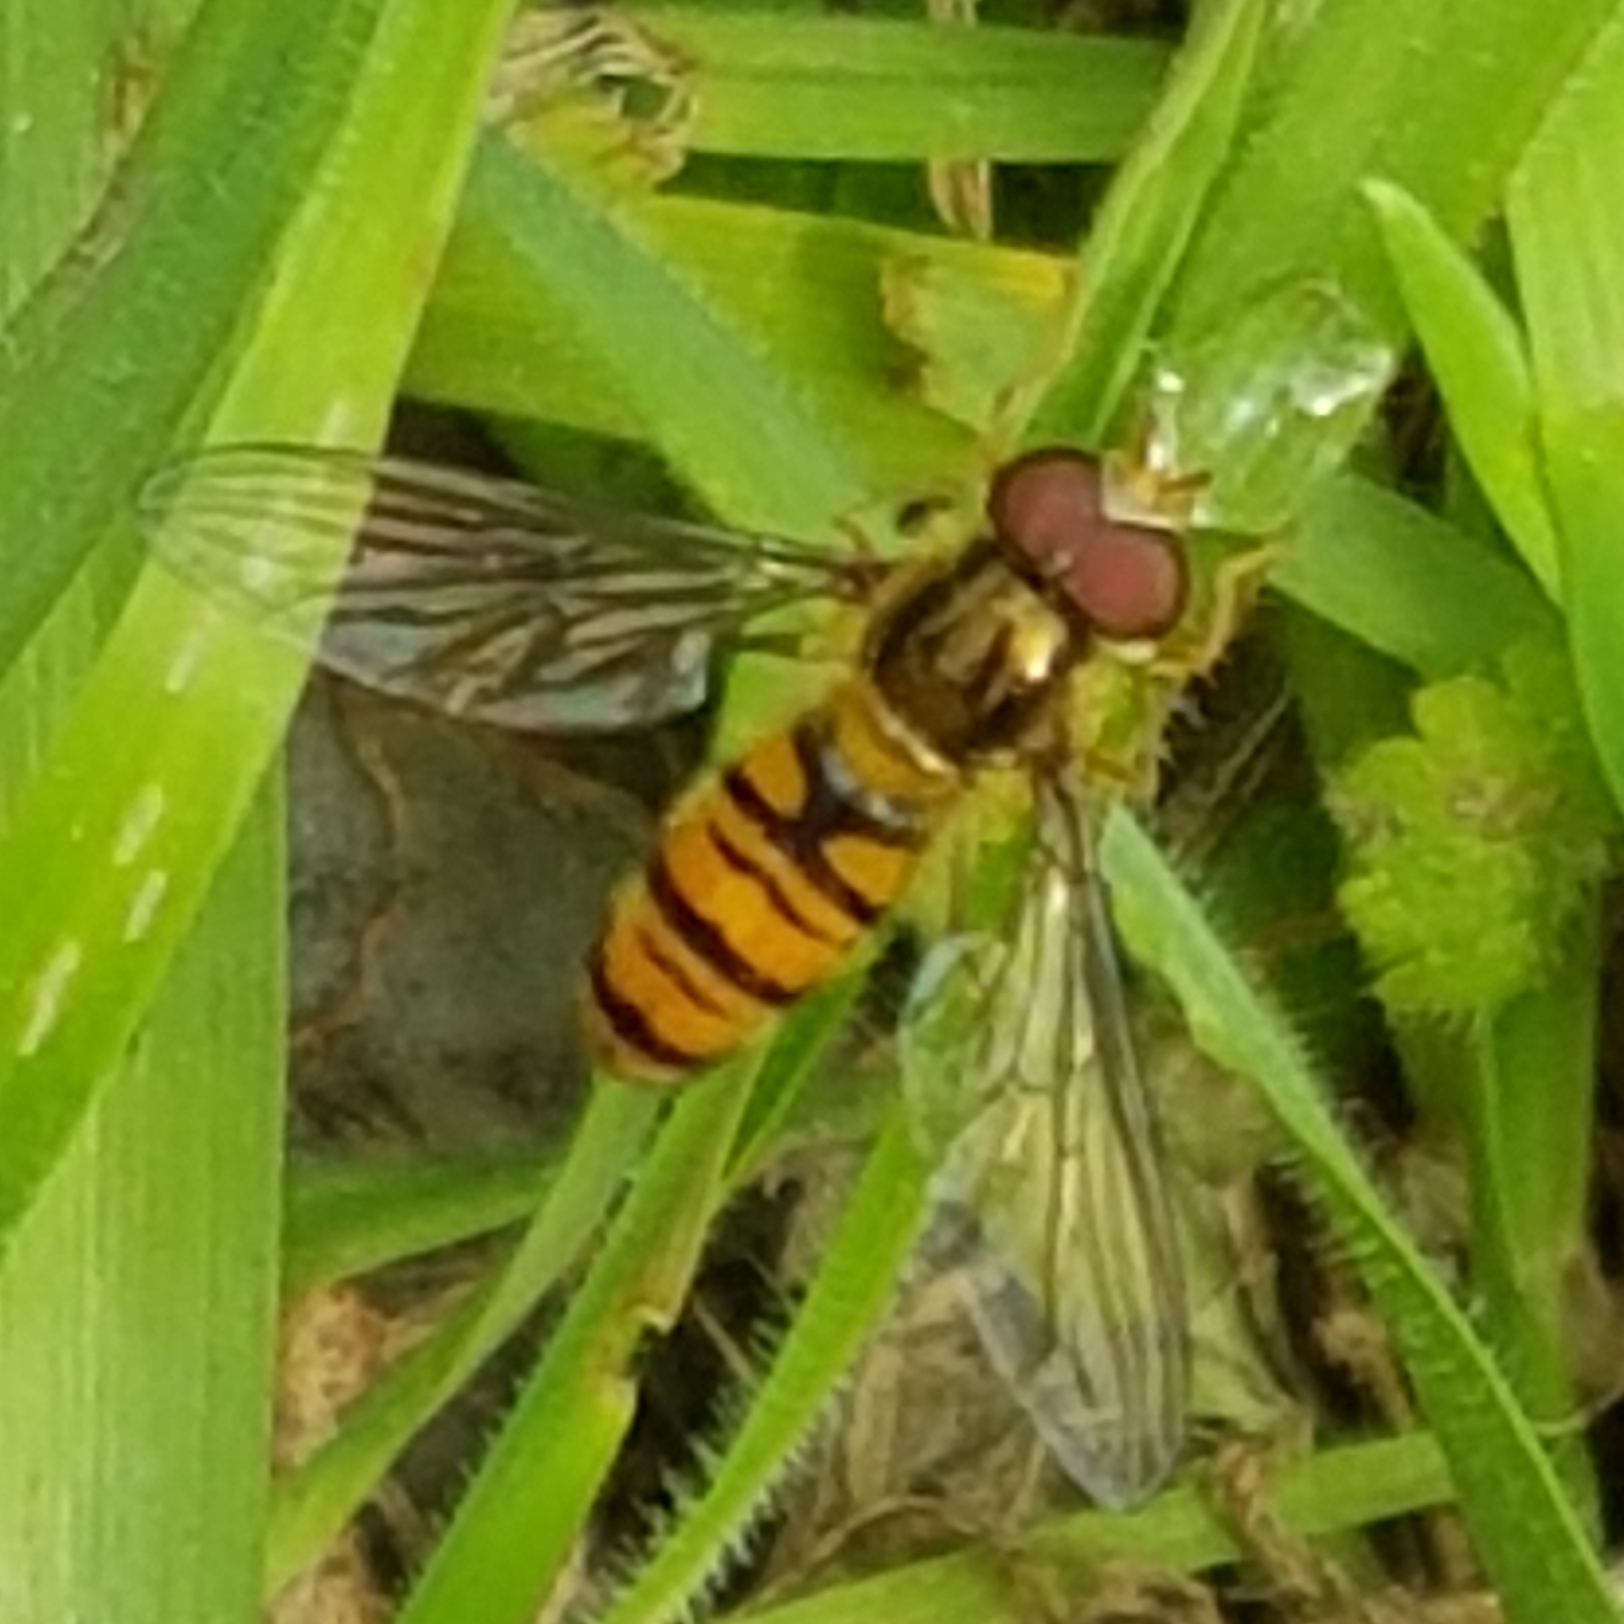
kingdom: Animalia
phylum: Arthropoda
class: Insecta
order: Diptera
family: Syrphidae
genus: Episyrphus
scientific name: Episyrphus balteatus
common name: Marmalade hoverfly
